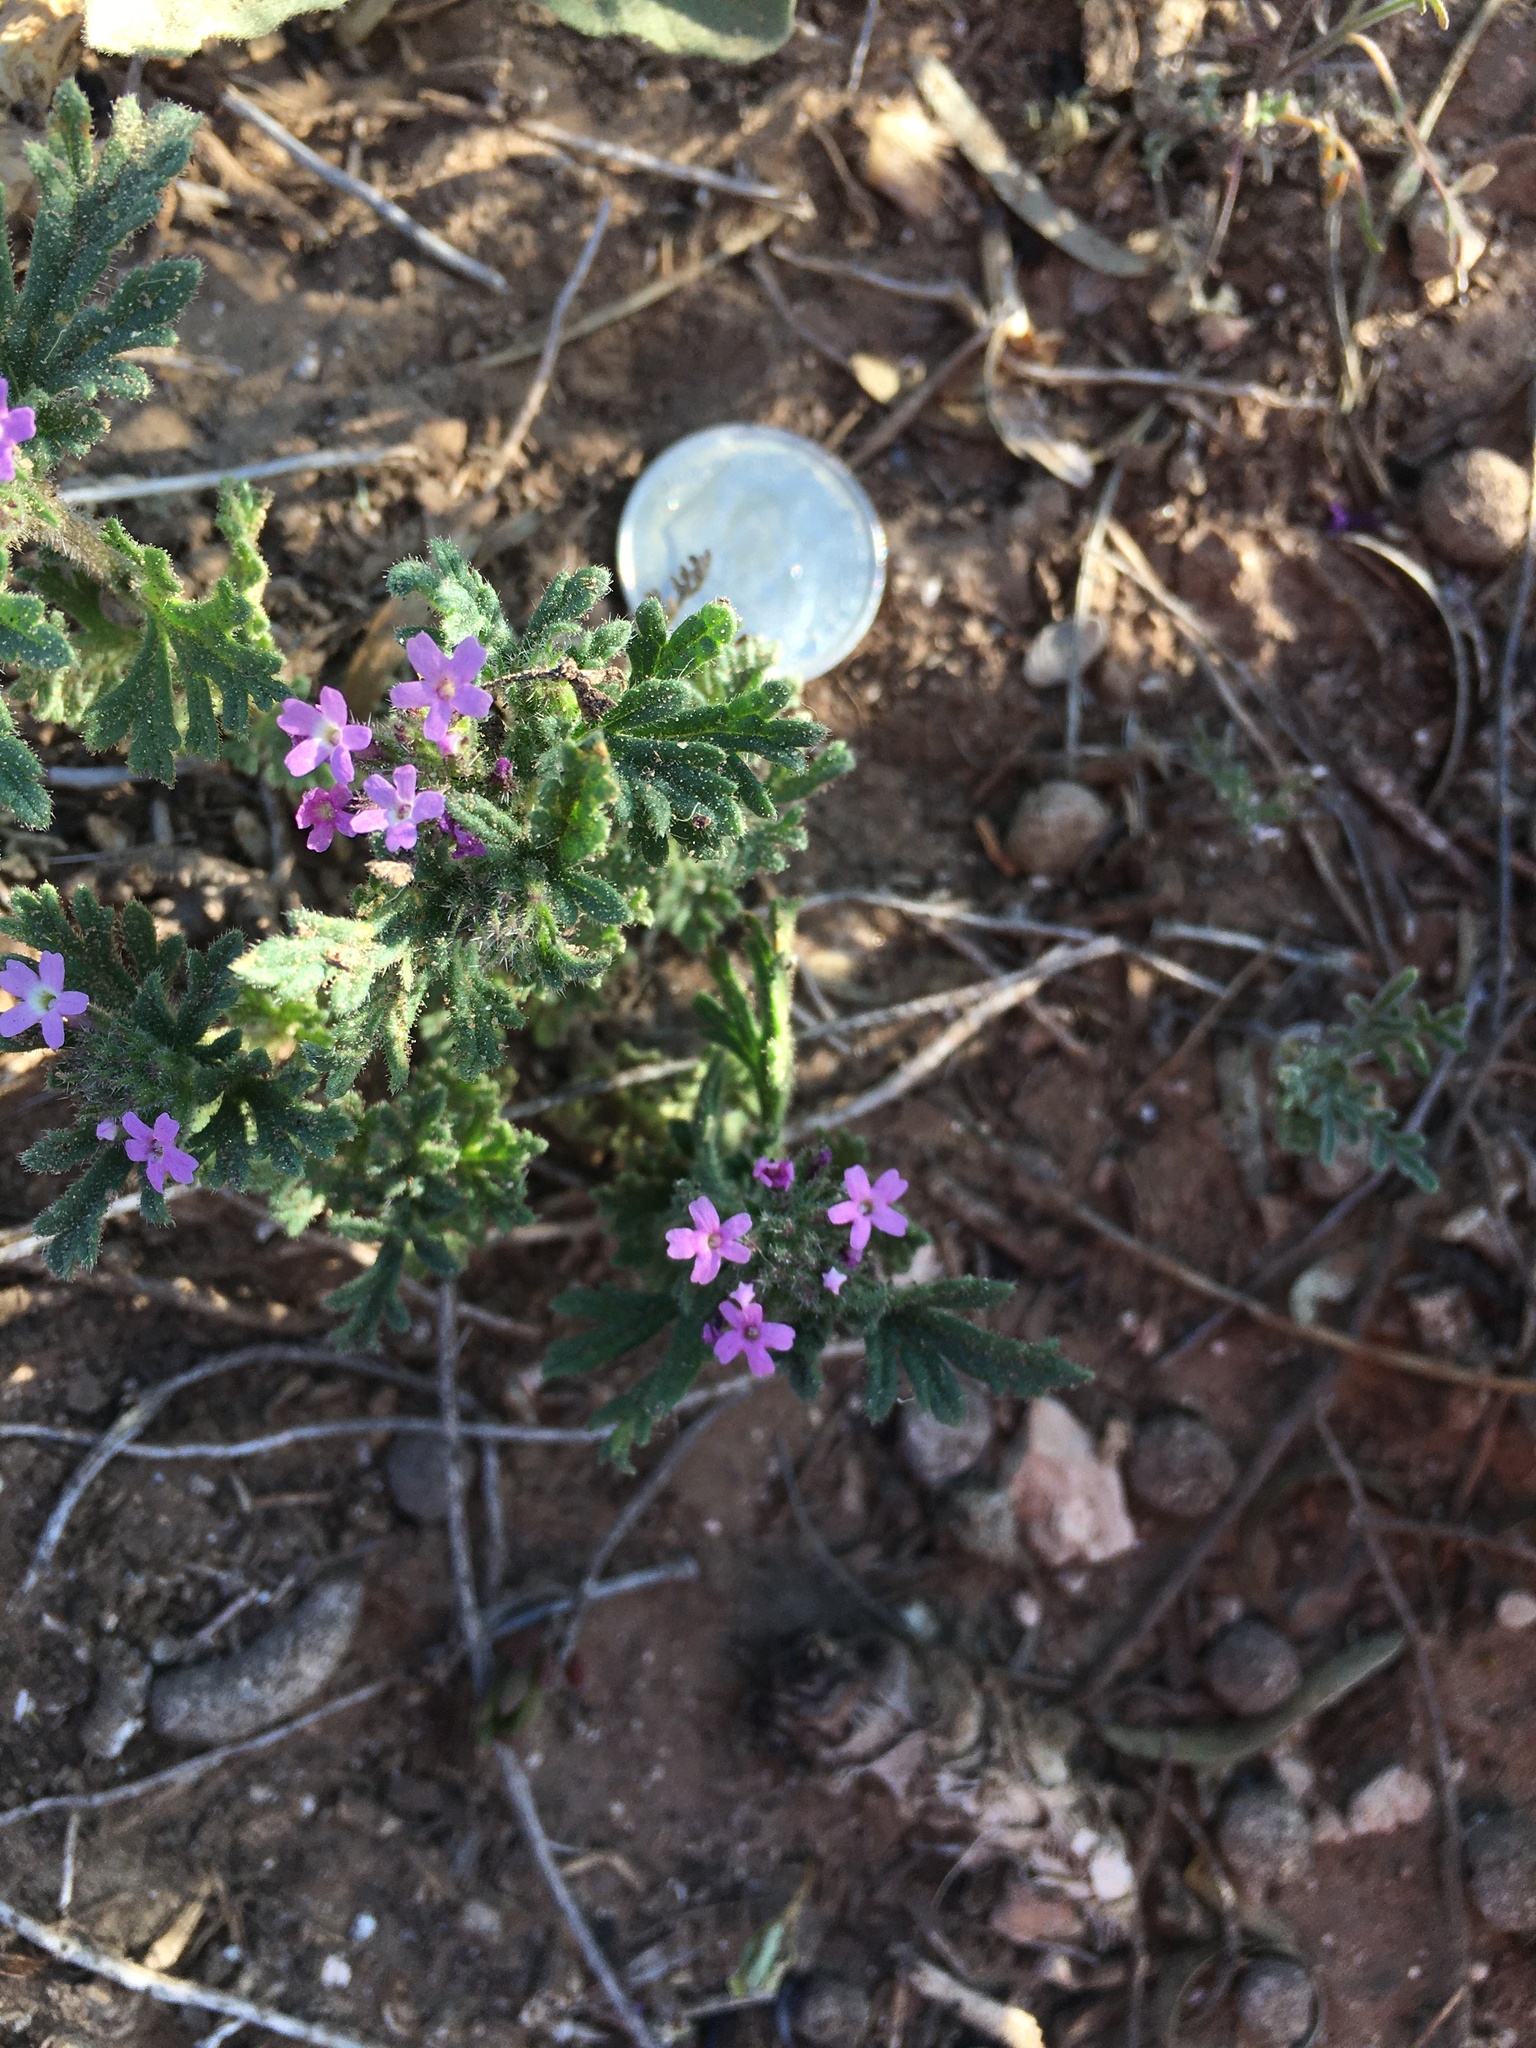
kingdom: Plantae
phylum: Tracheophyta
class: Magnoliopsida
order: Lamiales
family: Verbenaceae
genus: Verbena
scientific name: Verbena pumila
